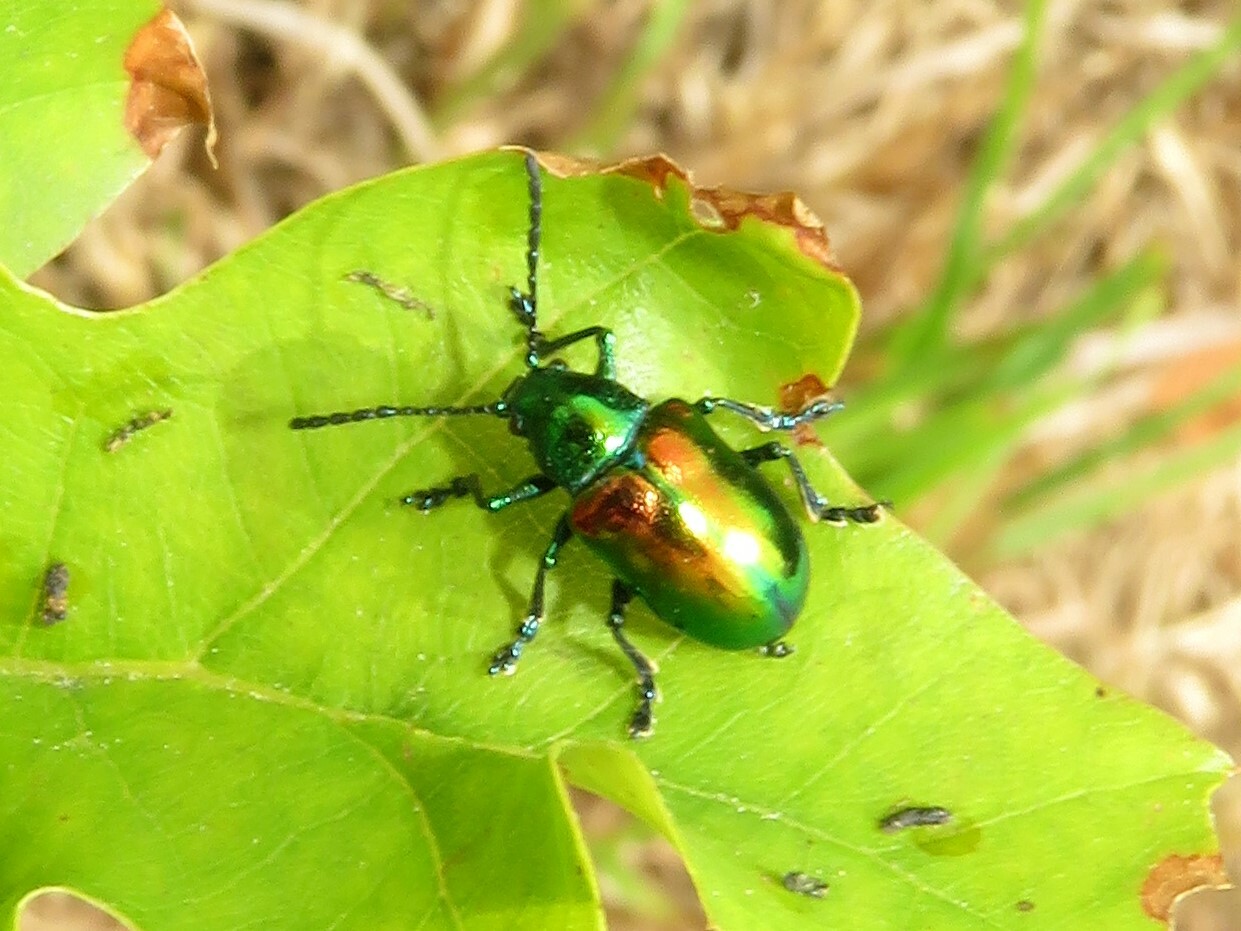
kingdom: Animalia
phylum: Arthropoda
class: Insecta
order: Coleoptera
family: Chrysomelidae
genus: Chrysochus
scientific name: Chrysochus auratus
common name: Dogbane leaf beetle
